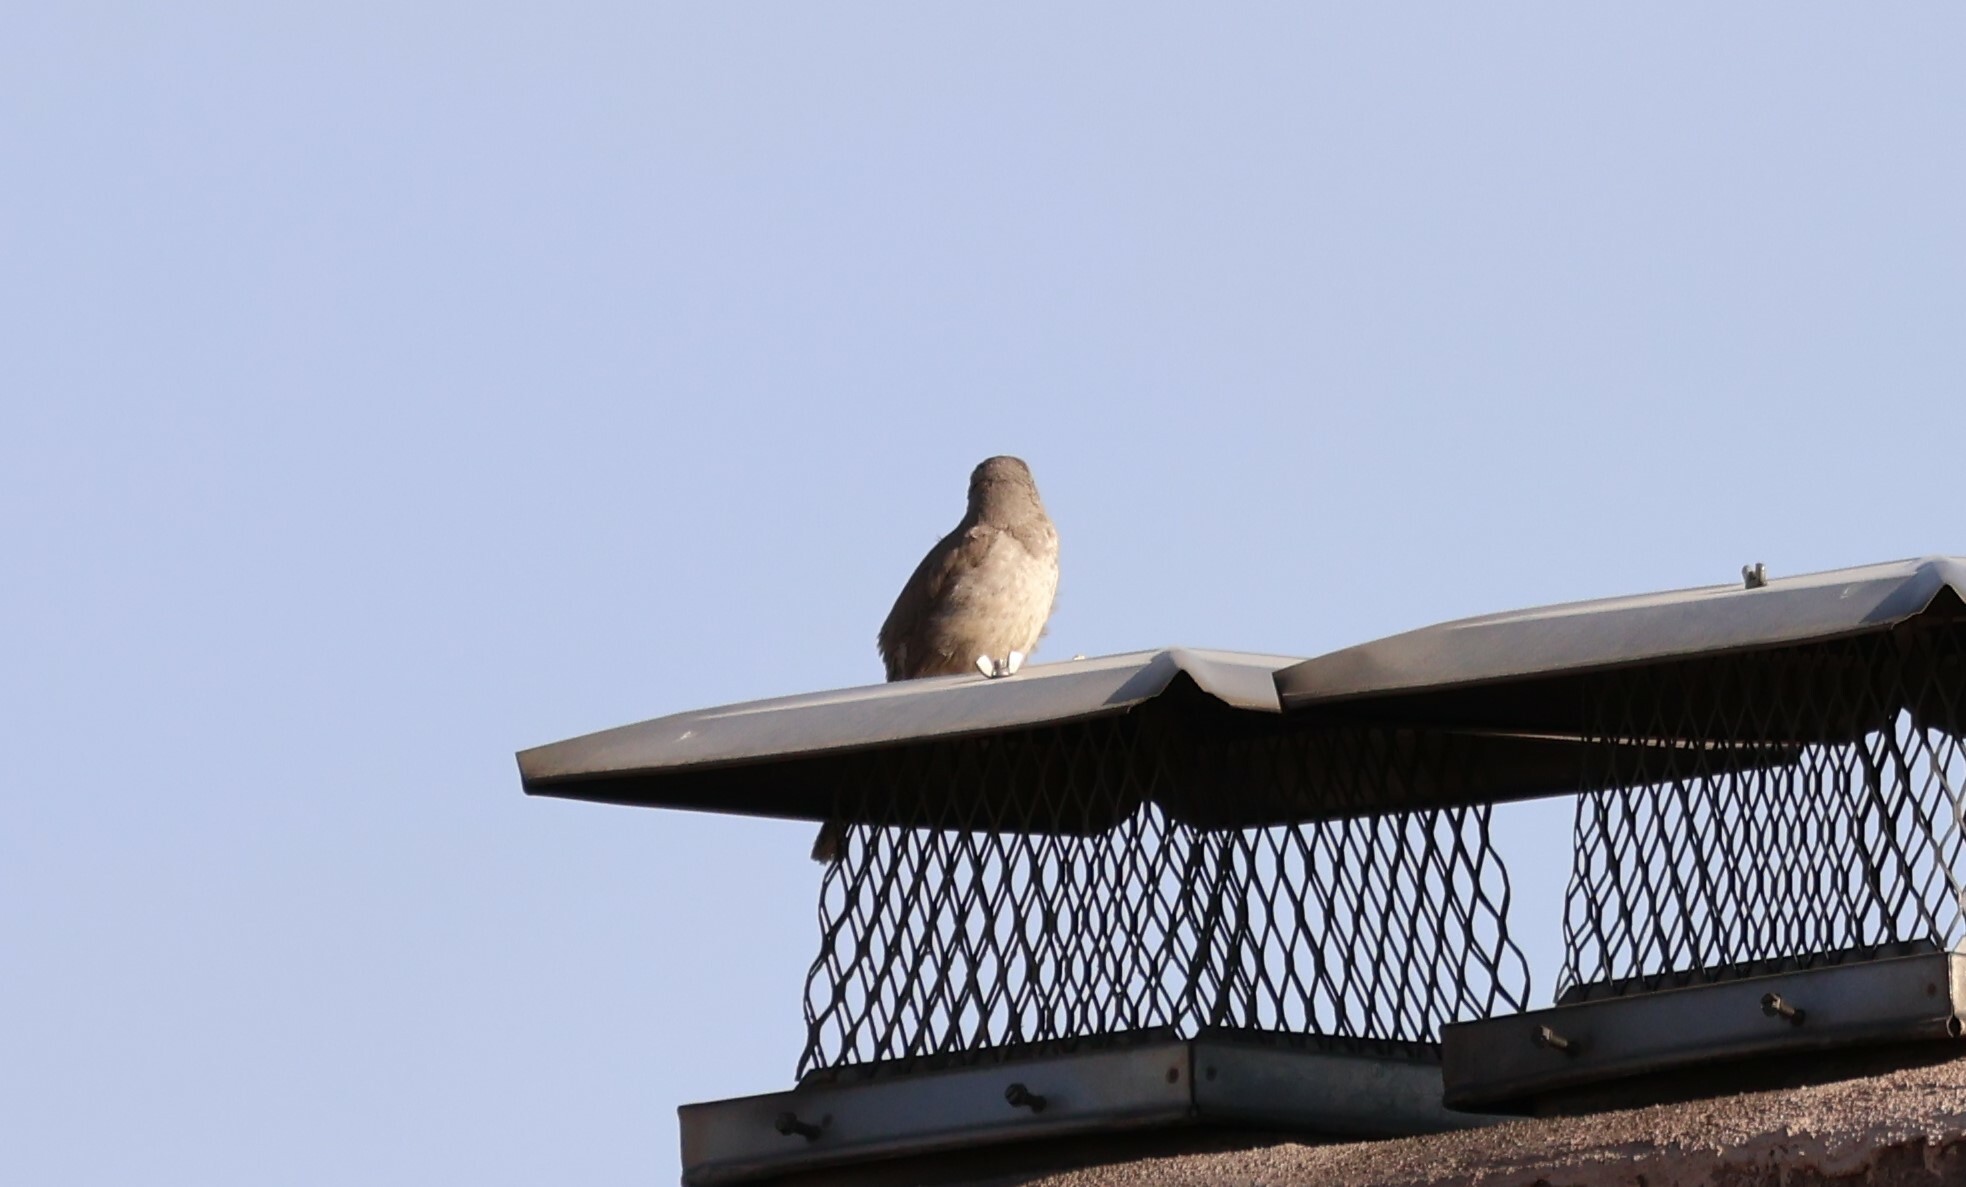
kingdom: Animalia
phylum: Chordata
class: Aves
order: Passeriformes
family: Mimidae
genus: Toxostoma
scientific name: Toxostoma curvirostre
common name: Curve-billed thrasher
